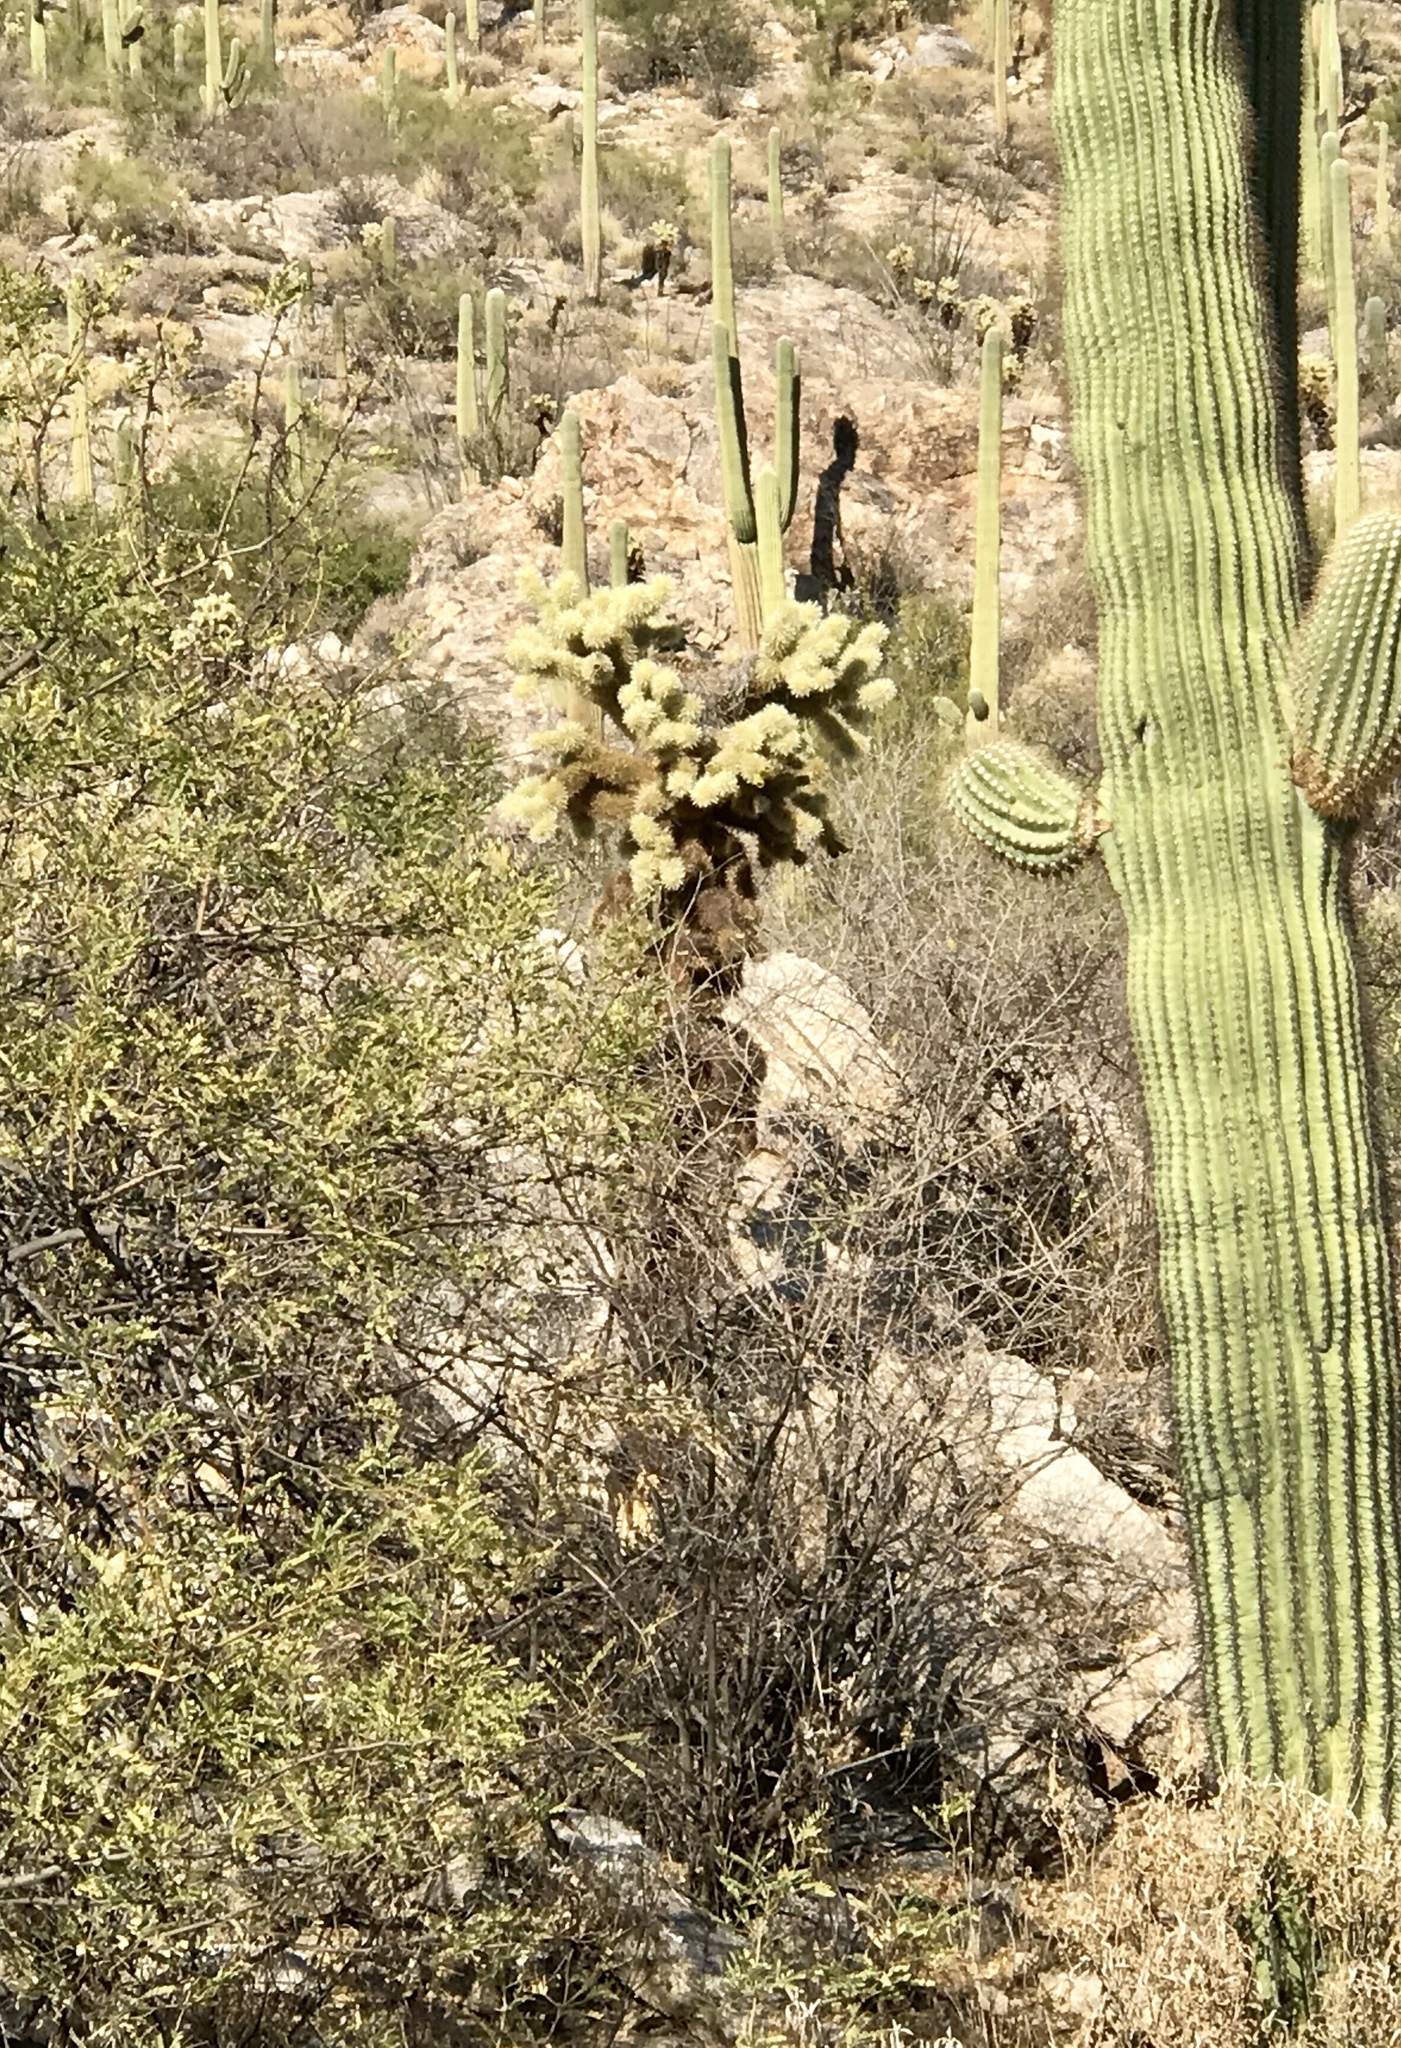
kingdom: Plantae
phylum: Tracheophyta
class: Magnoliopsida
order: Caryophyllales
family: Cactaceae
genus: Cylindropuntia
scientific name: Cylindropuntia fosbergii
